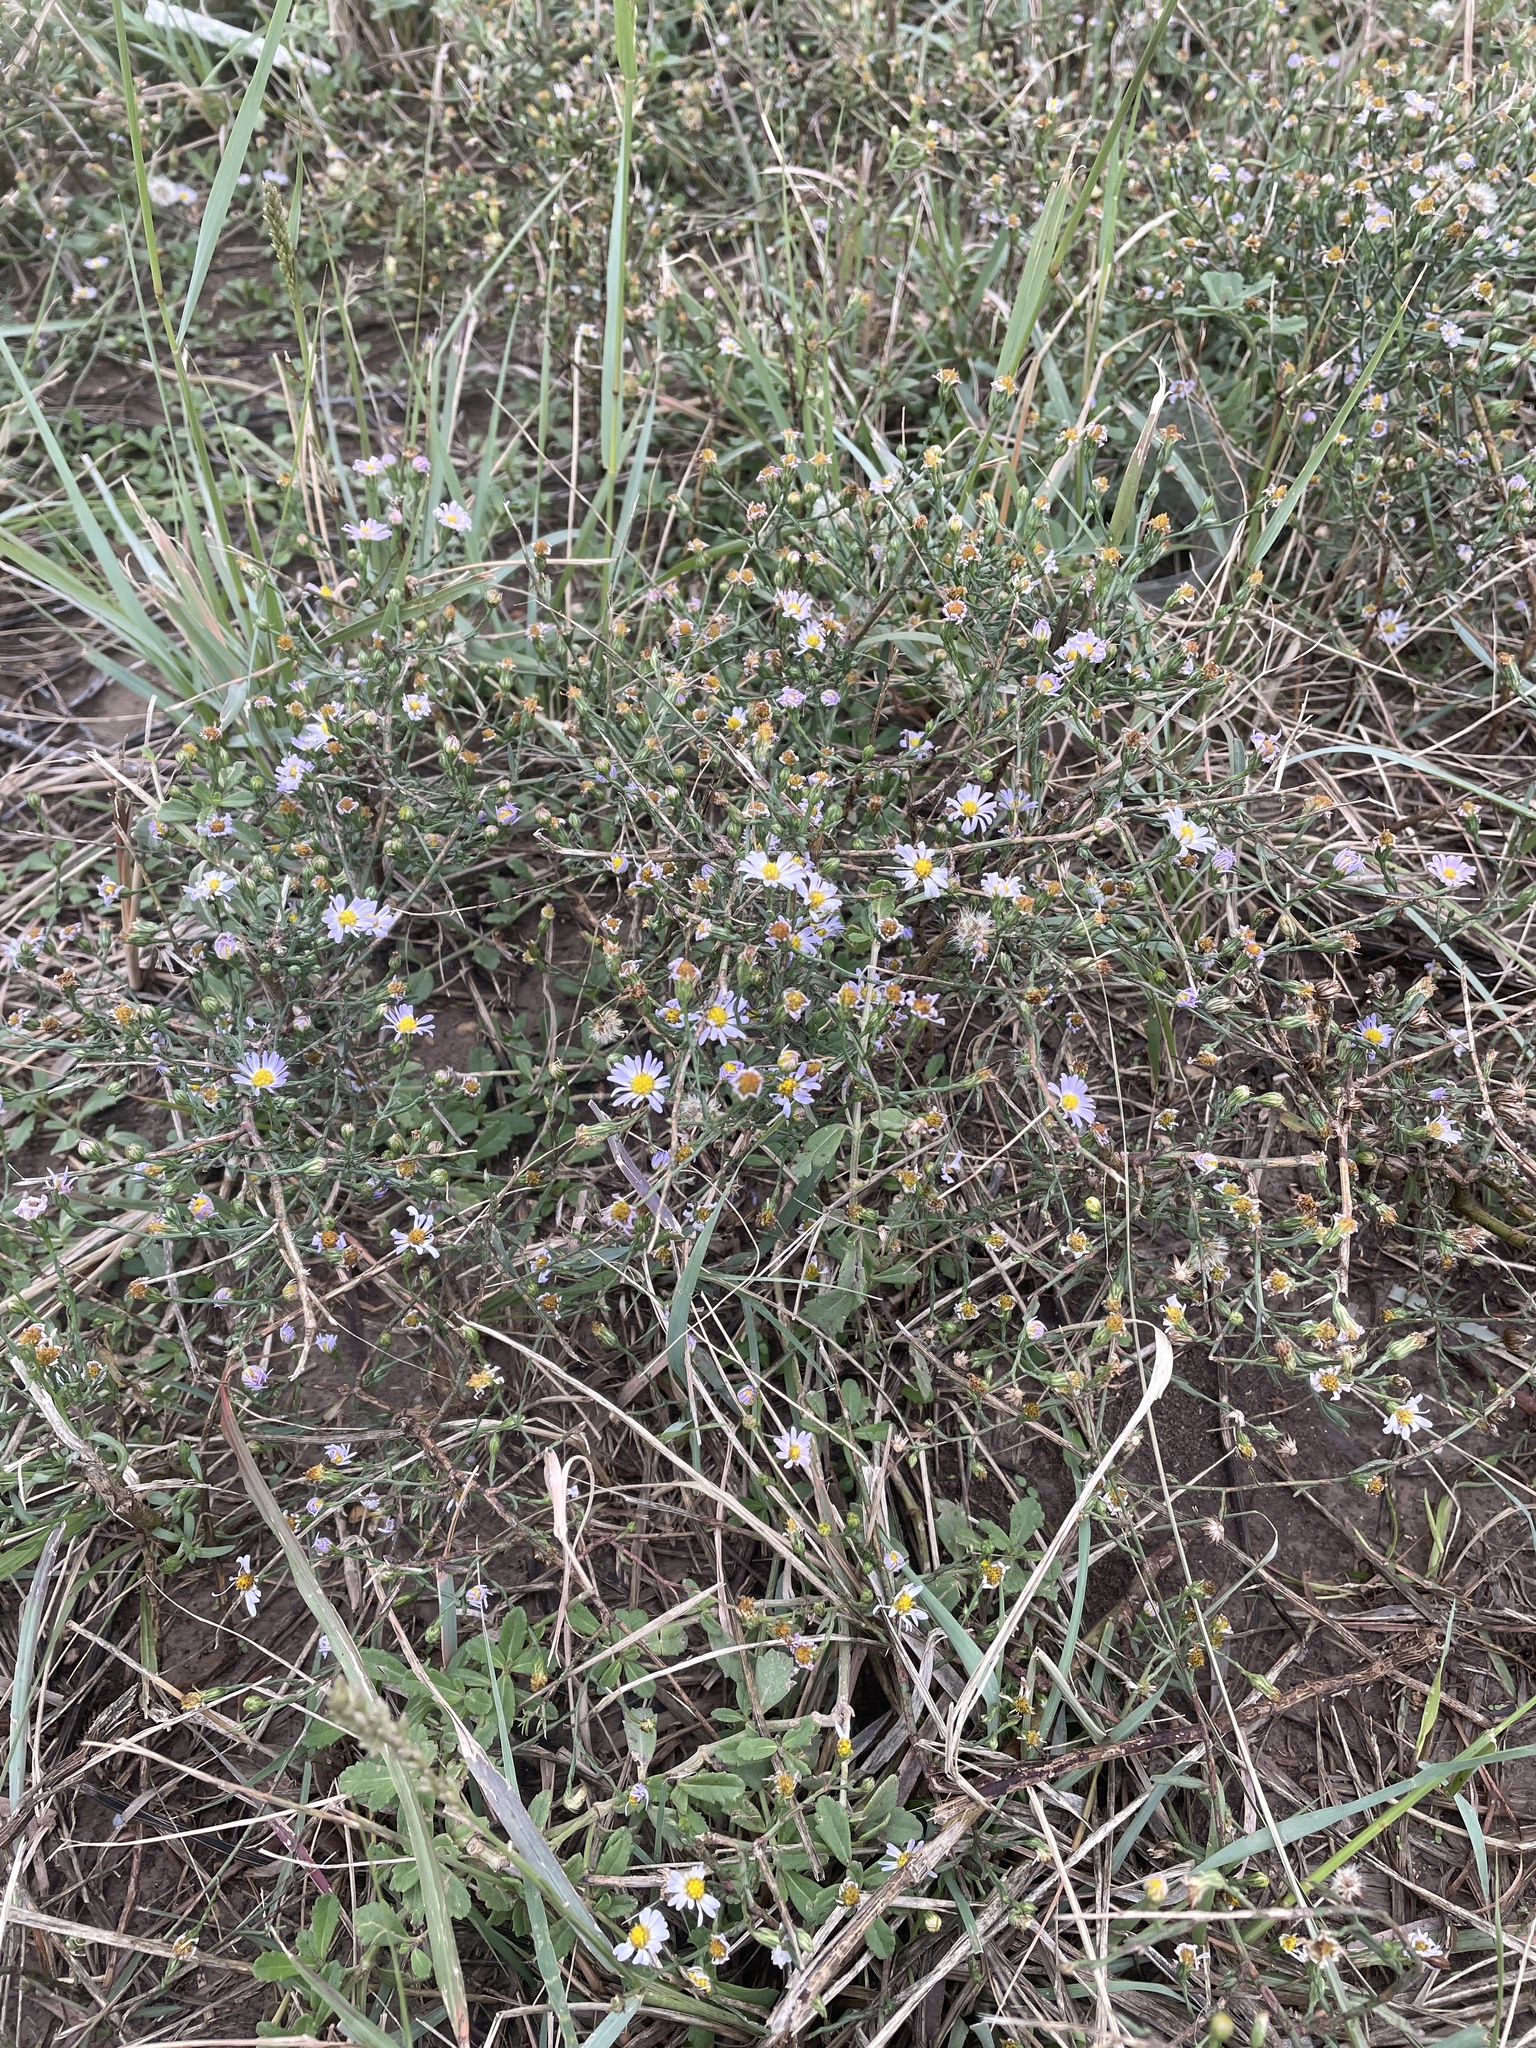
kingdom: Plantae
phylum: Tracheophyta
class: Magnoliopsida
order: Asterales
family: Asteraceae
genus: Symphyotrichum
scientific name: Symphyotrichum divaricatum
